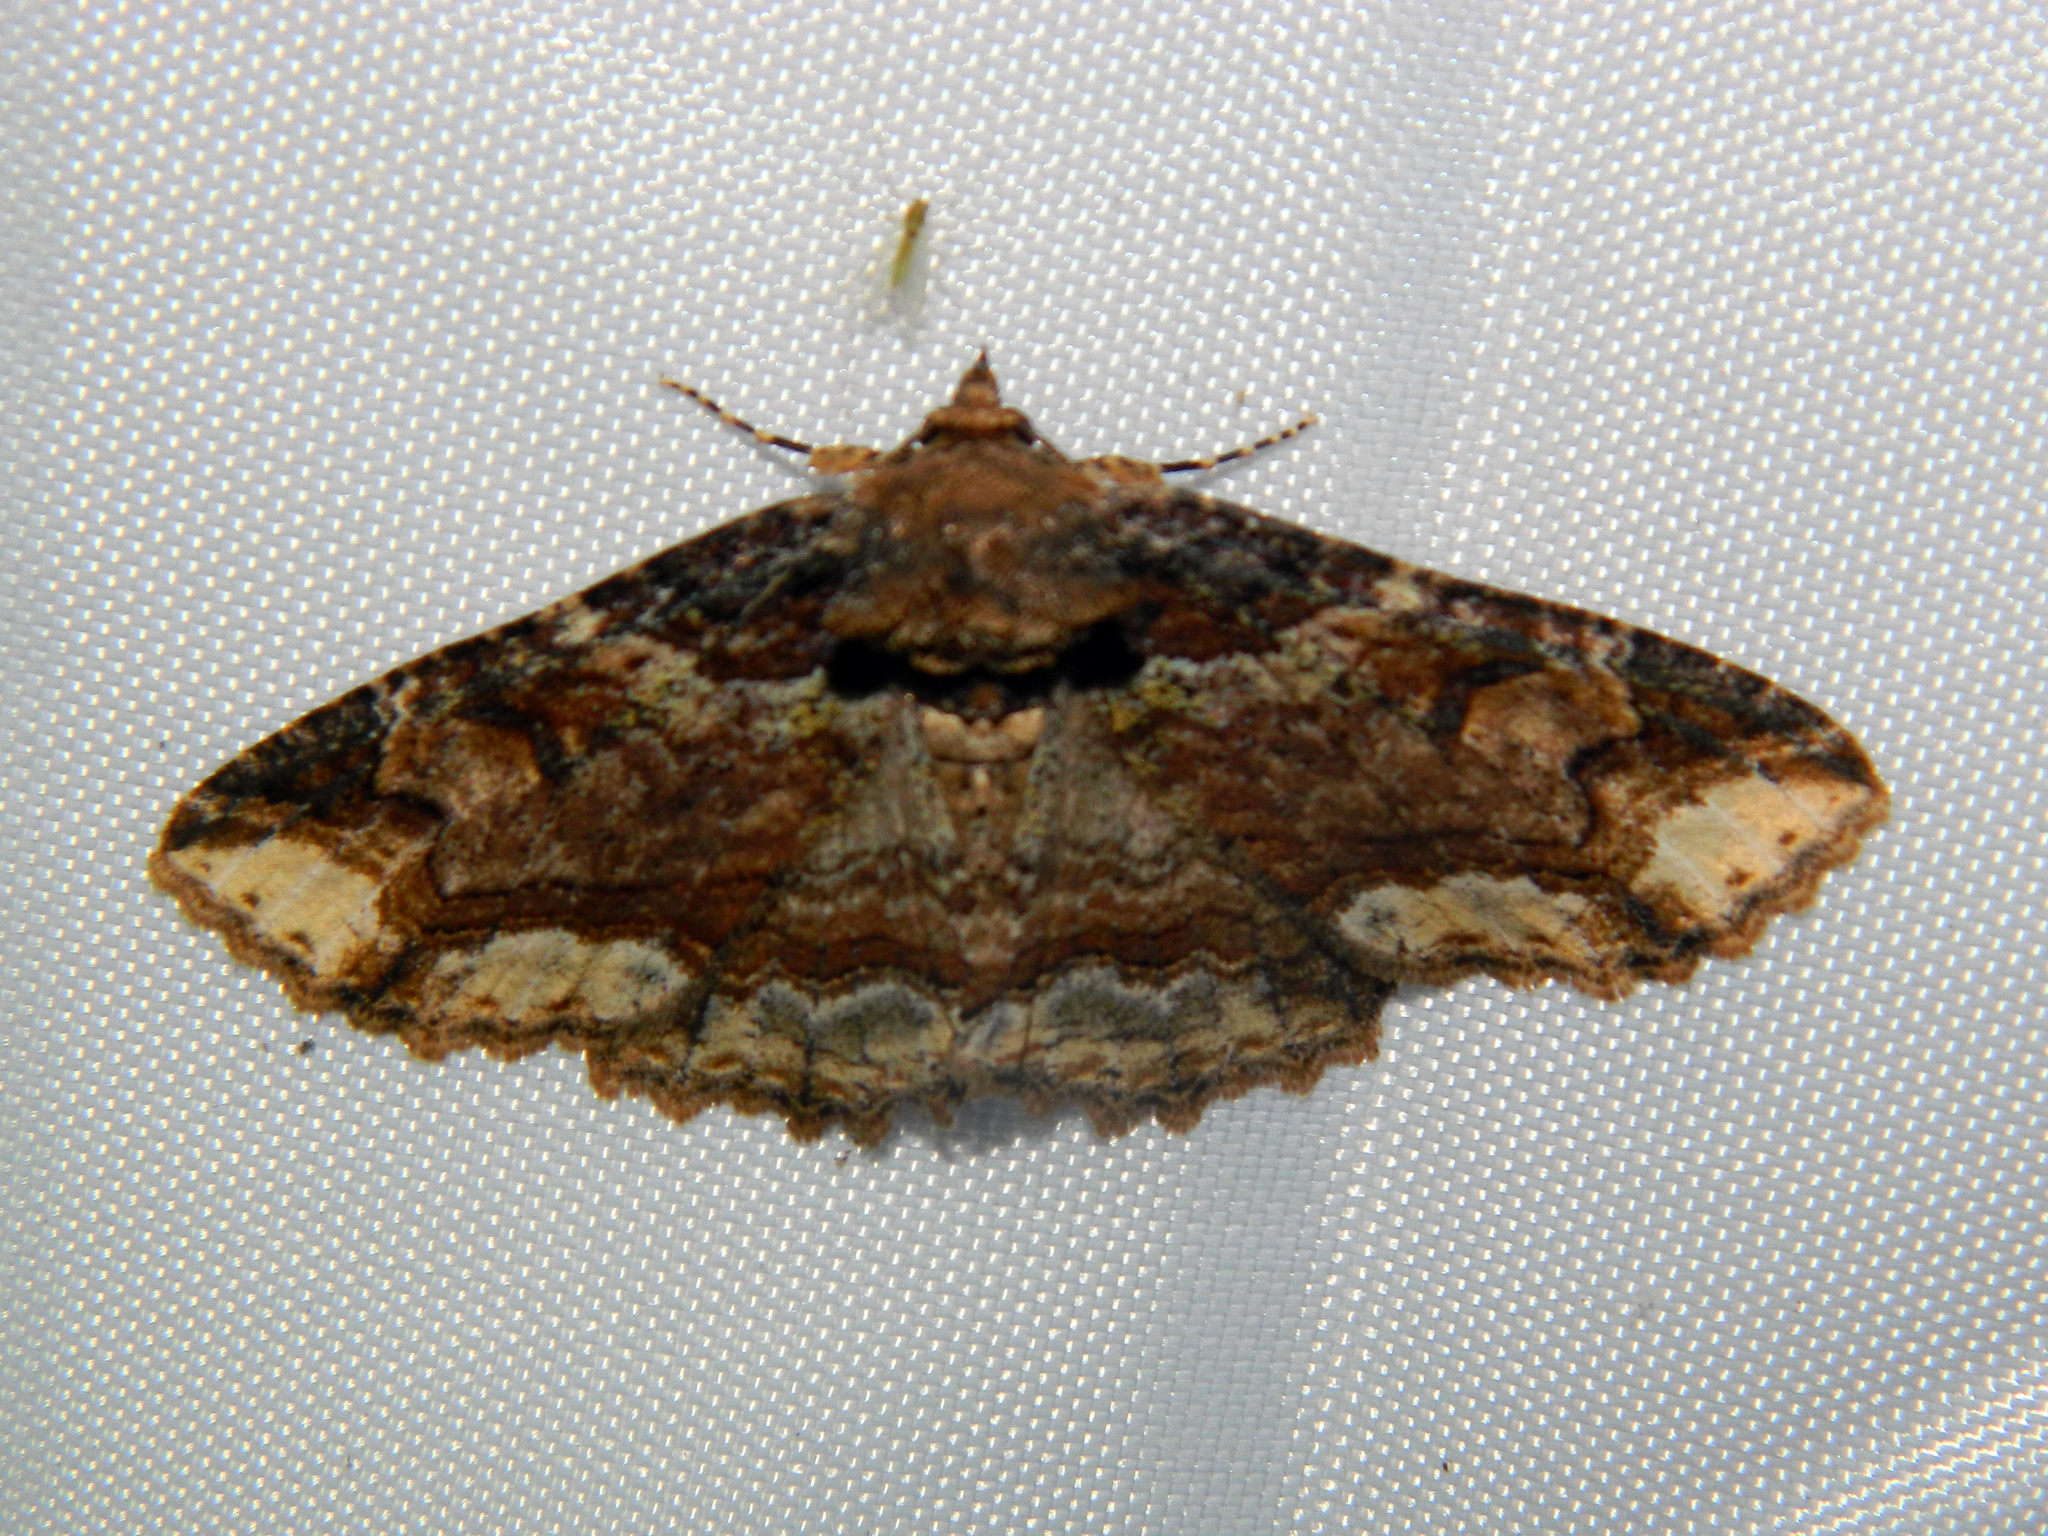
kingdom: Animalia
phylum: Arthropoda
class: Insecta
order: Lepidoptera
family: Erebidae
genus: Zale
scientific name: Zale minerea
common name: Colorful zale moth
